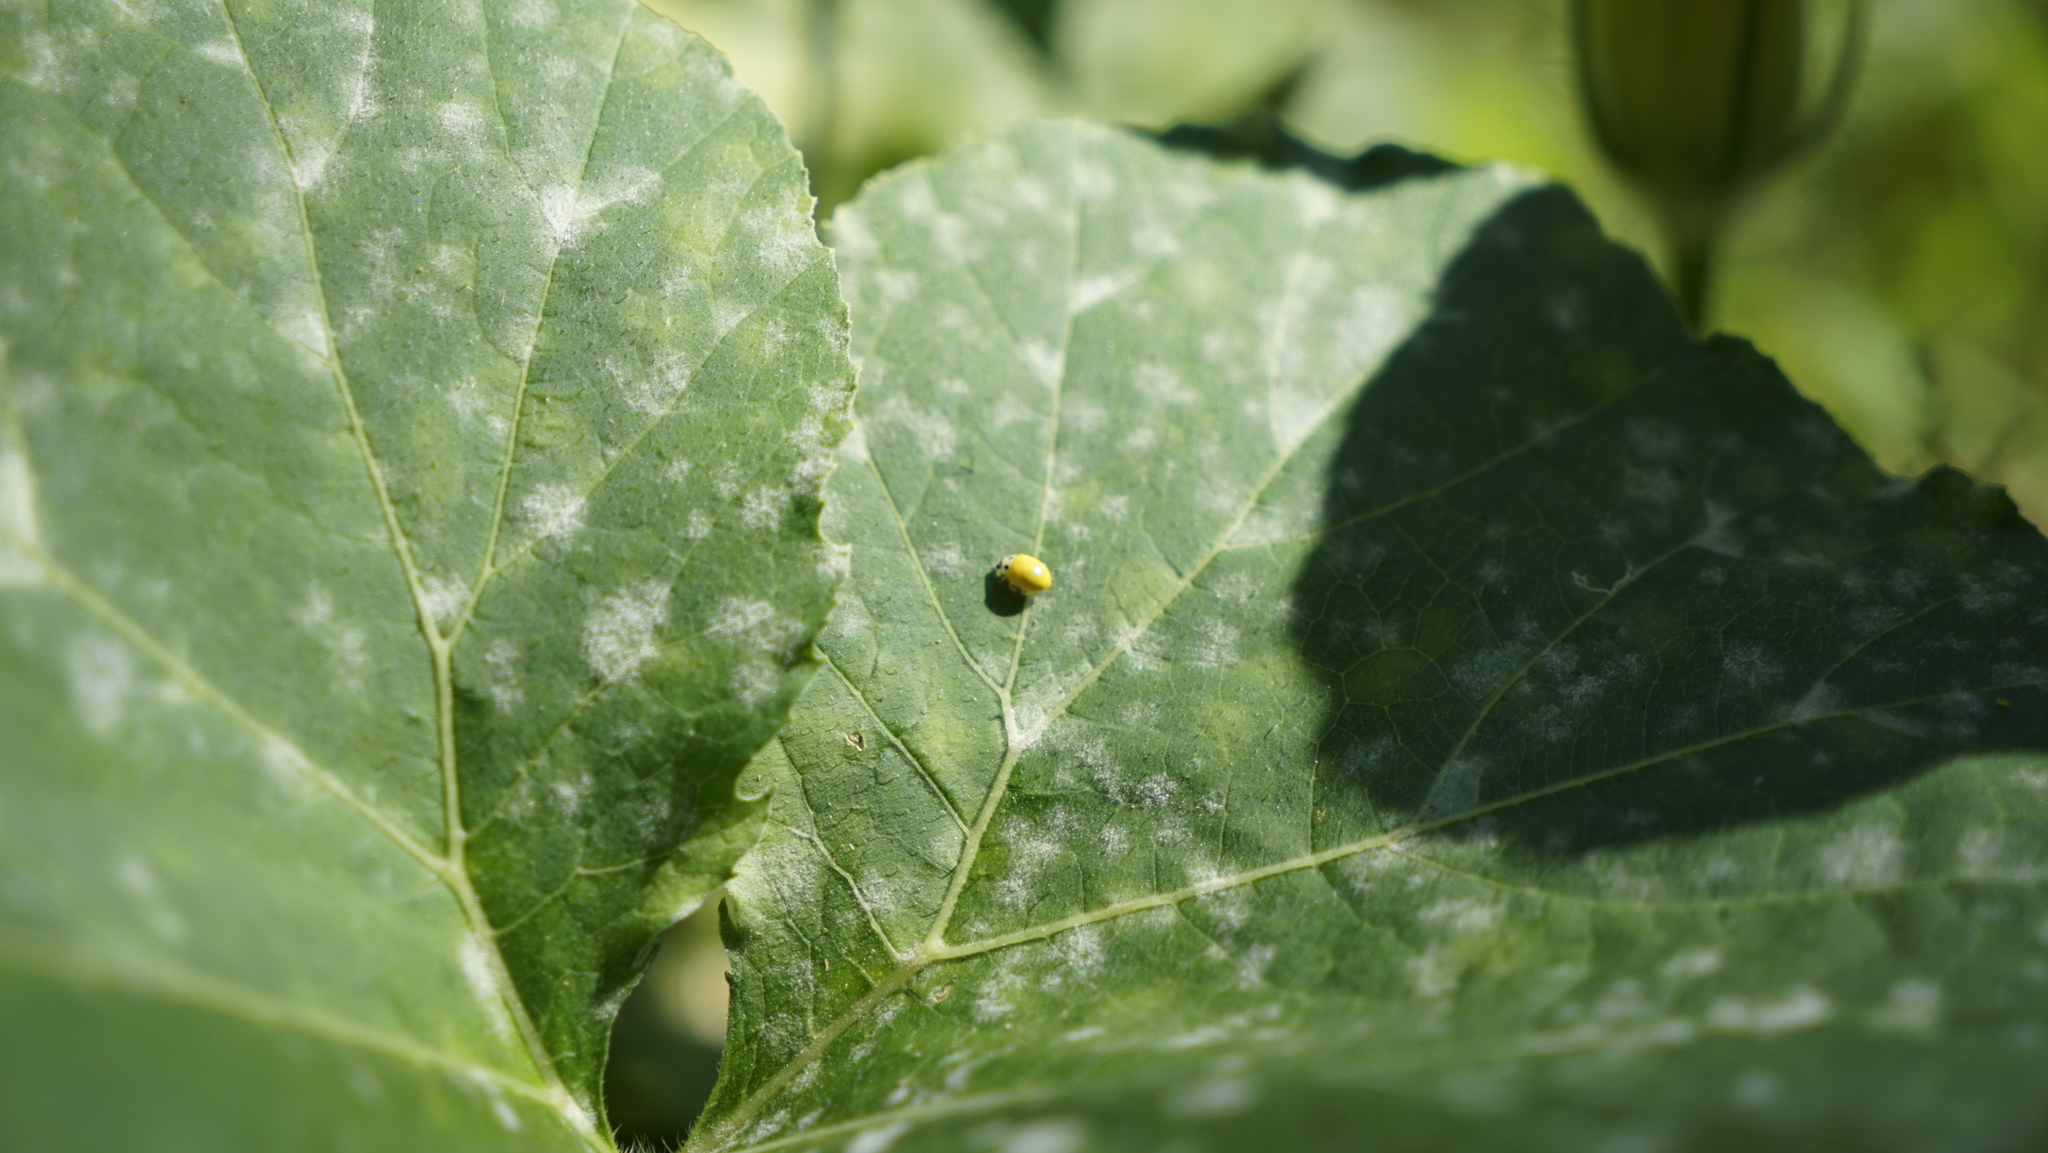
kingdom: Animalia
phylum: Arthropoda
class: Insecta
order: Coleoptera
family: Coccinellidae
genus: Illeis
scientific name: Illeis koebelei
